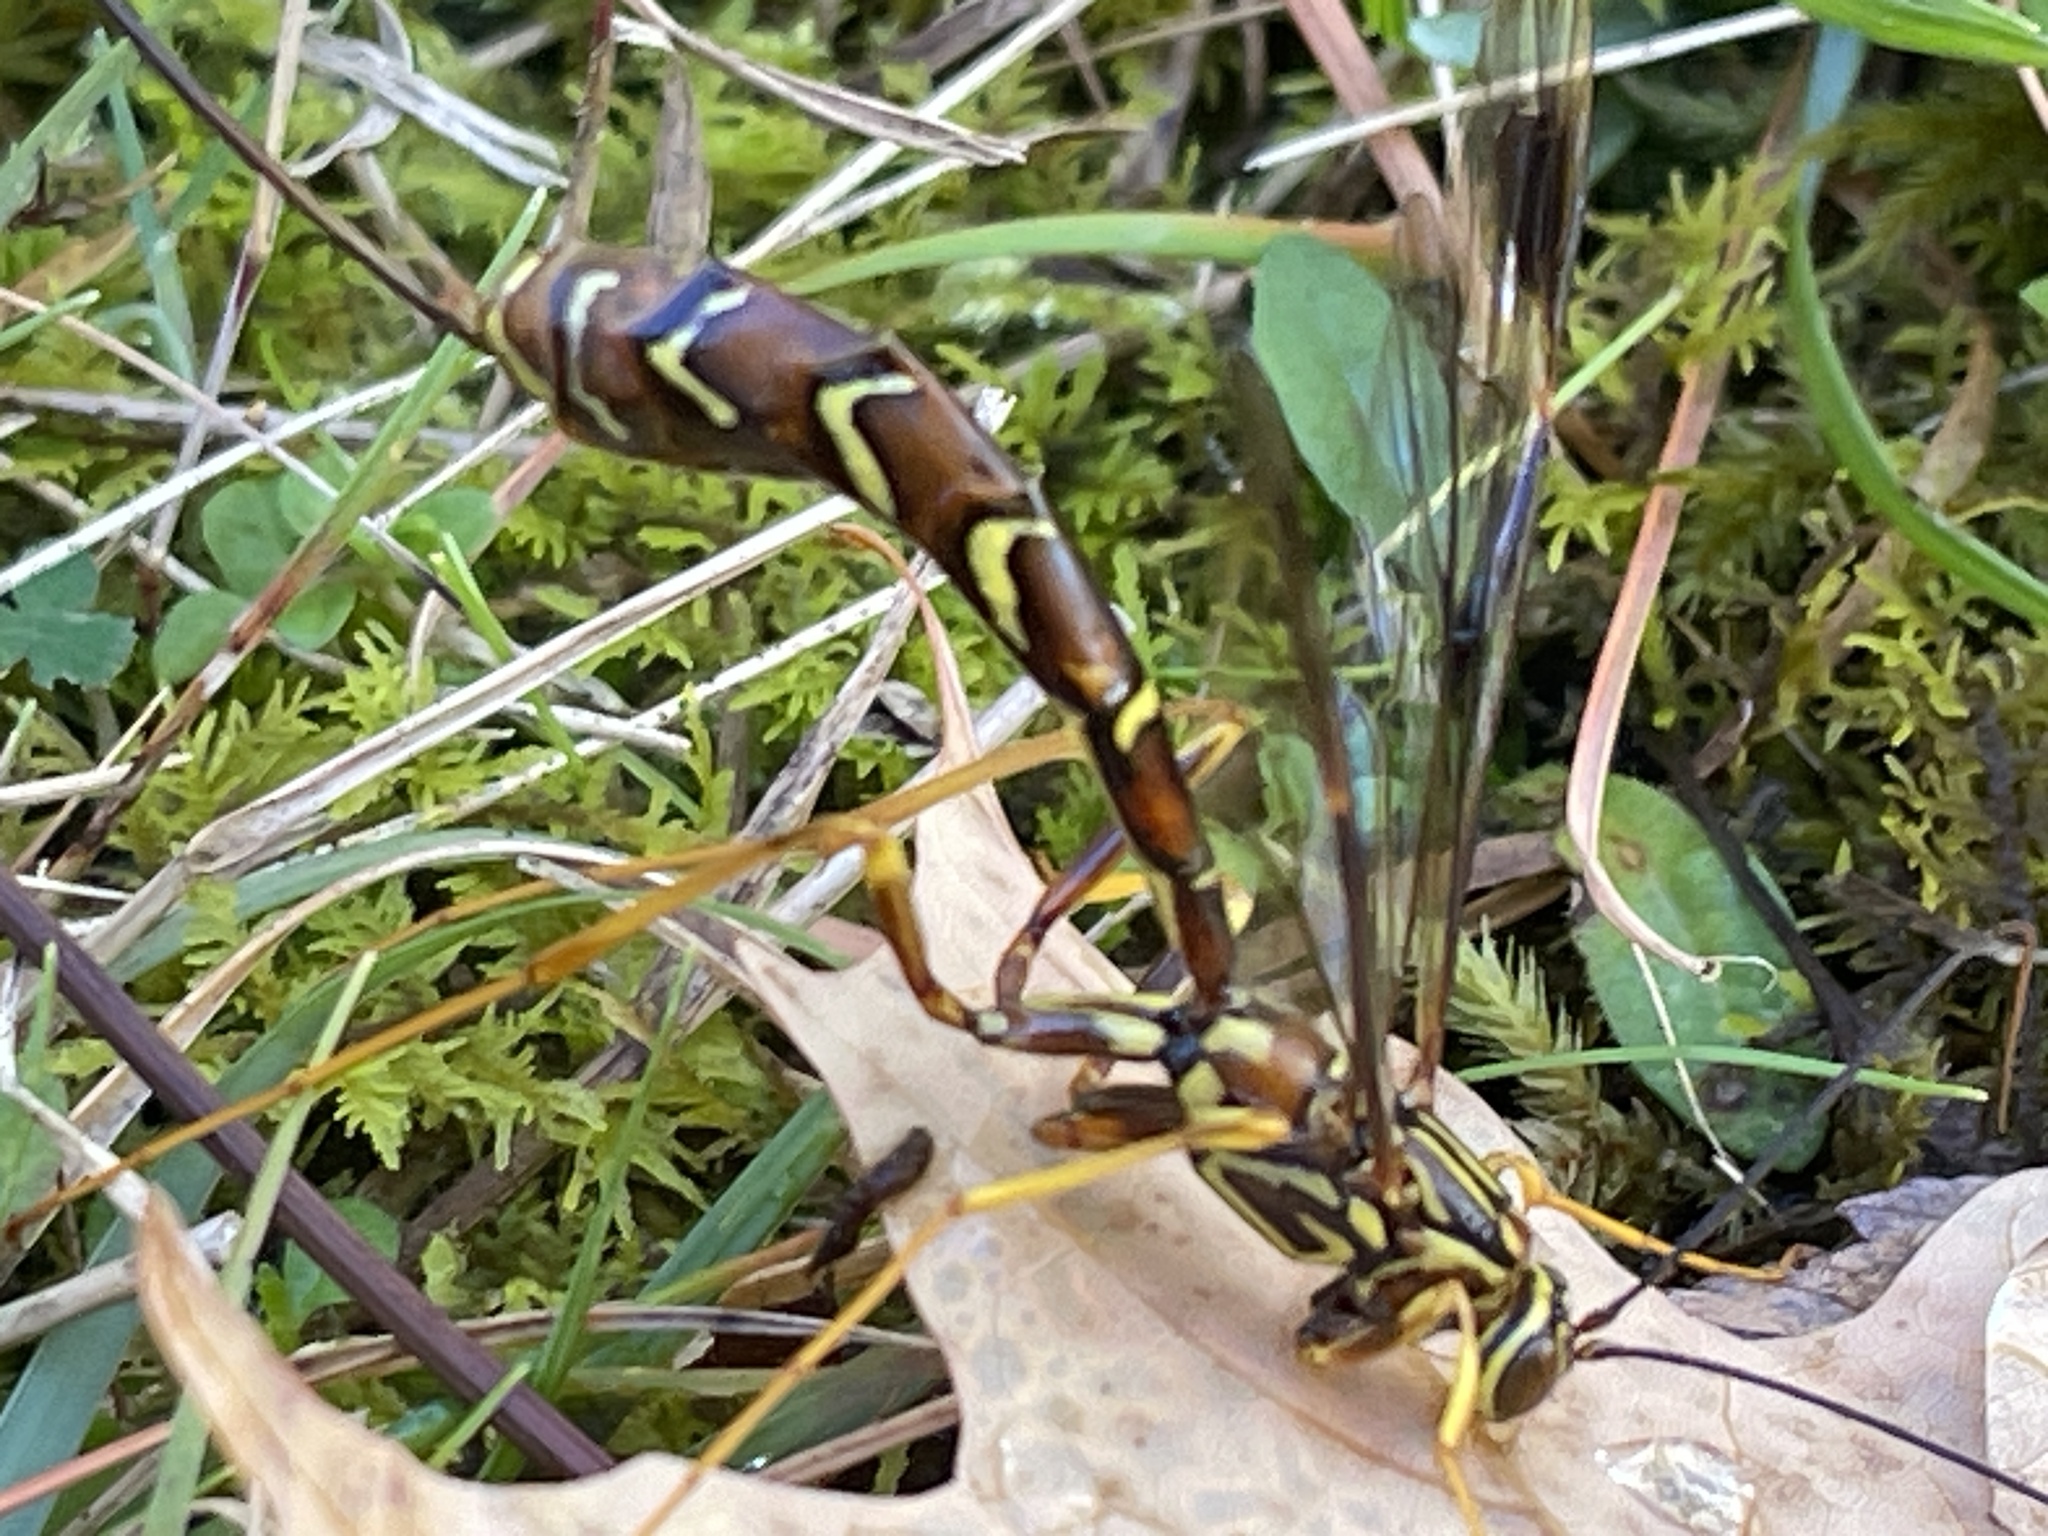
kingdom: Animalia
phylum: Arthropoda
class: Insecta
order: Hymenoptera
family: Ichneumonidae
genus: Megarhyssa
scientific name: Megarhyssa macrura
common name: Long-tailed giant ichneumonid wasp
